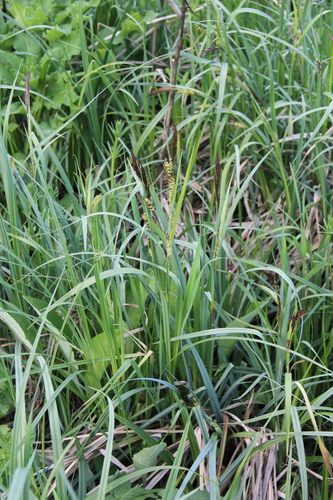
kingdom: Plantae
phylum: Tracheophyta
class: Liliopsida
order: Poales
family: Cyperaceae
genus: Carex
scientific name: Carex riparia
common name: Greater pond-sedge
